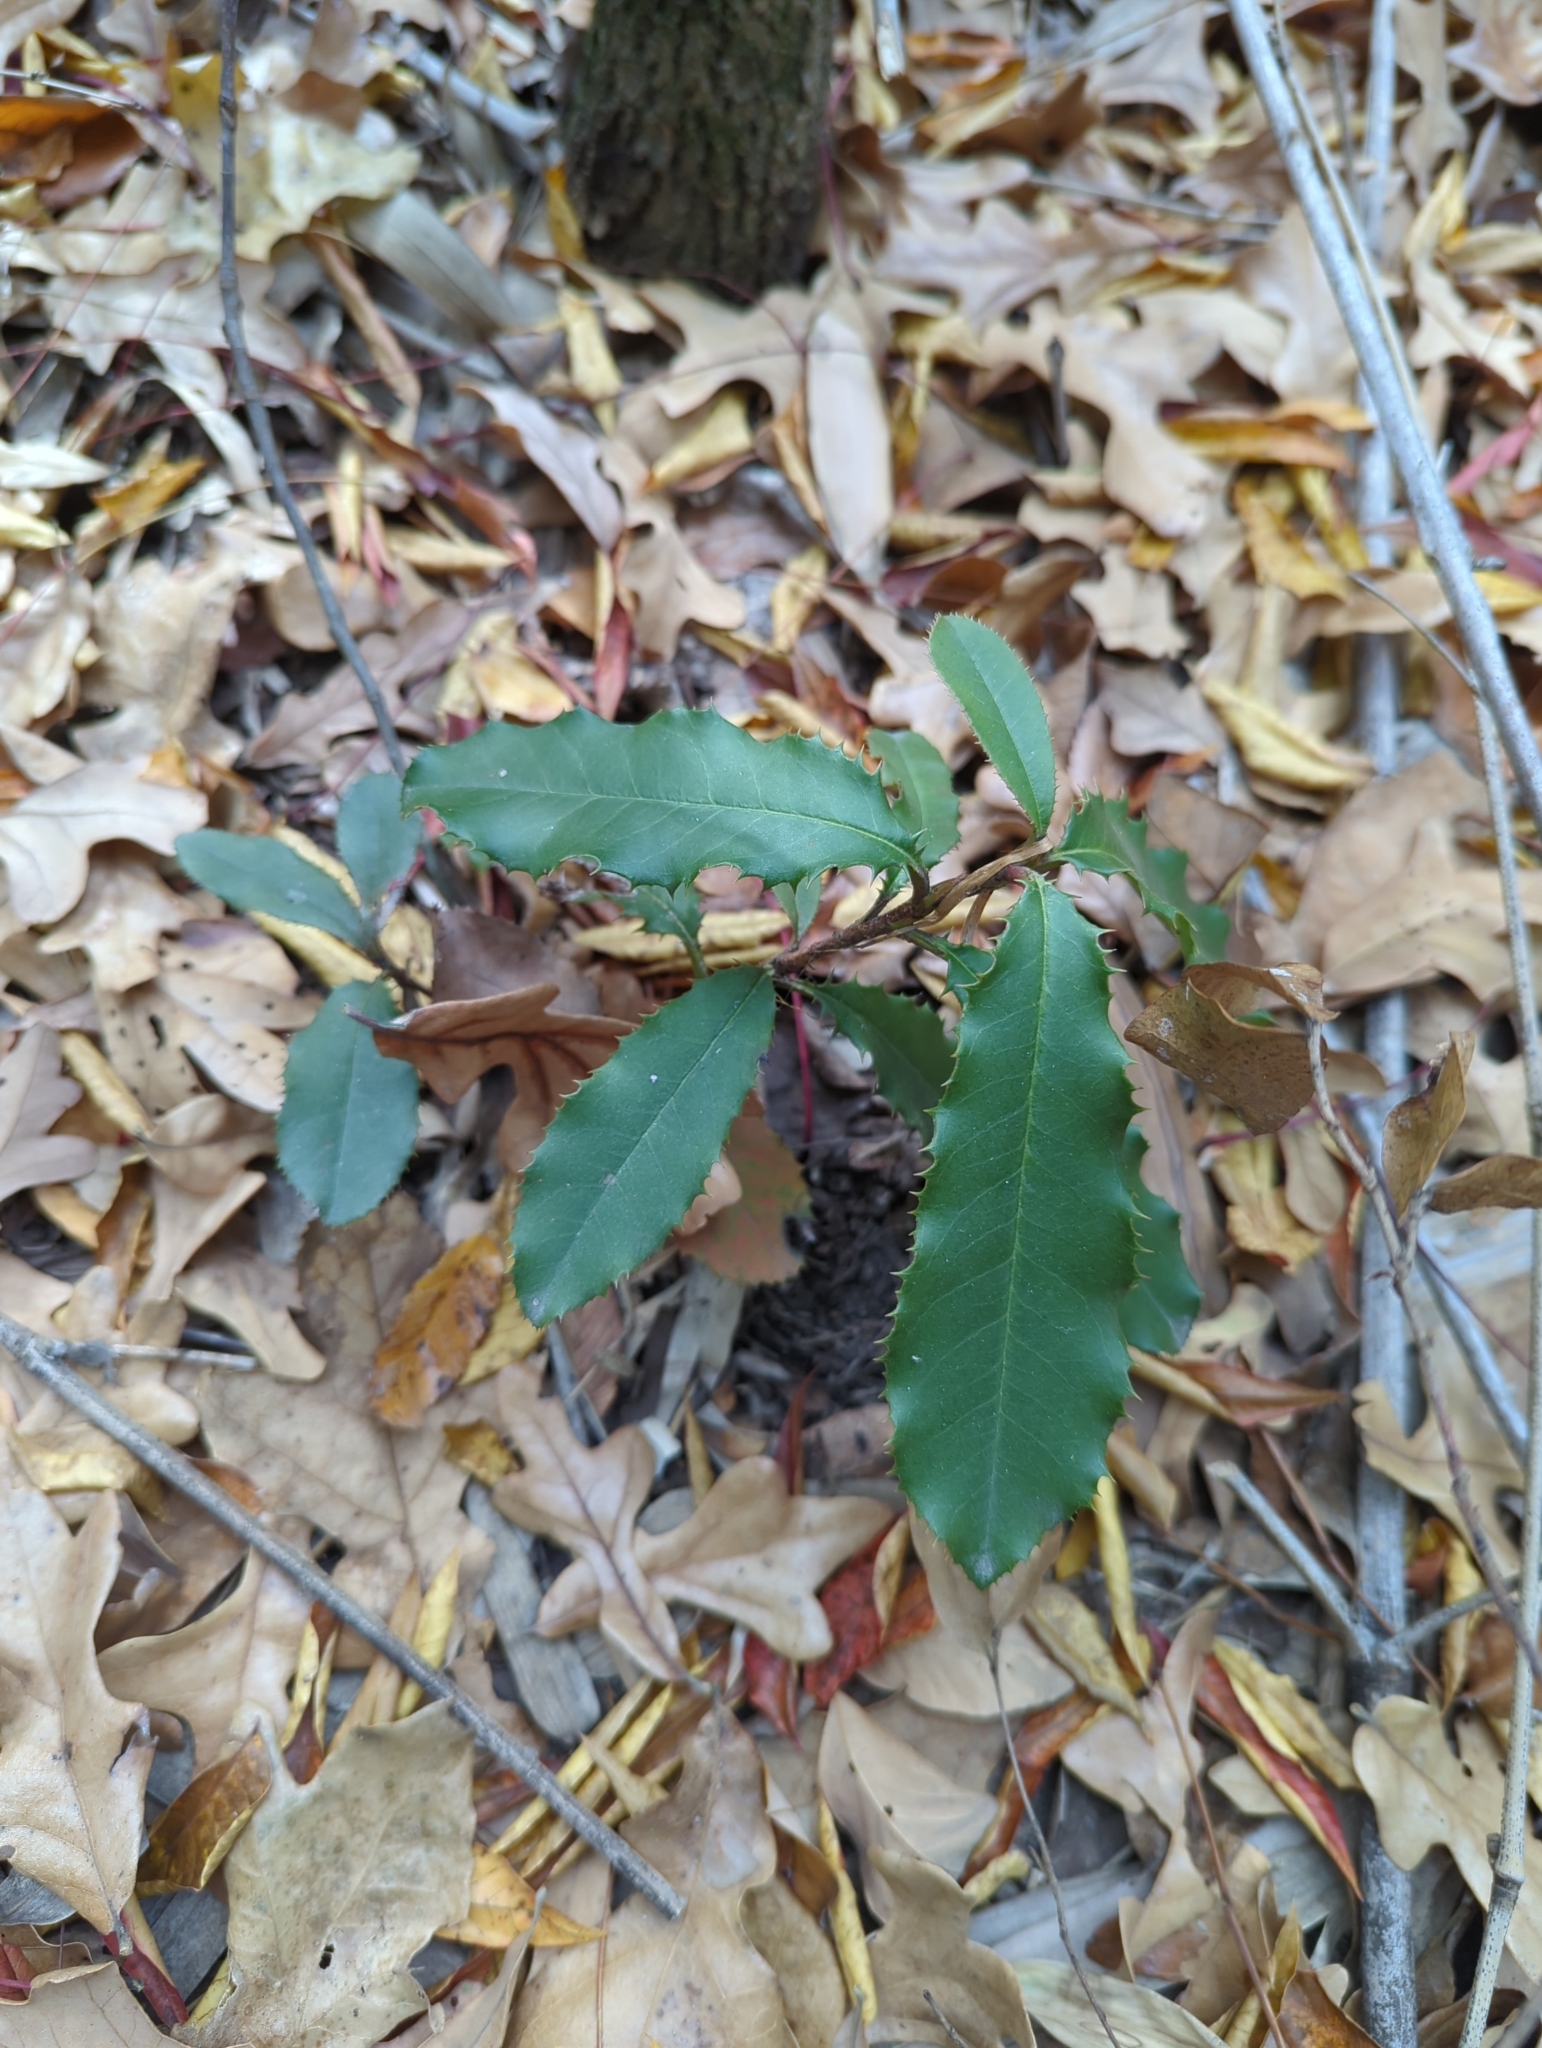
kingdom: Plantae
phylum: Tracheophyta
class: Magnoliopsida
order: Rosales
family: Rosaceae
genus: Photinia
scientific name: Photinia serratifolia
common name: Taiwanese photinia
